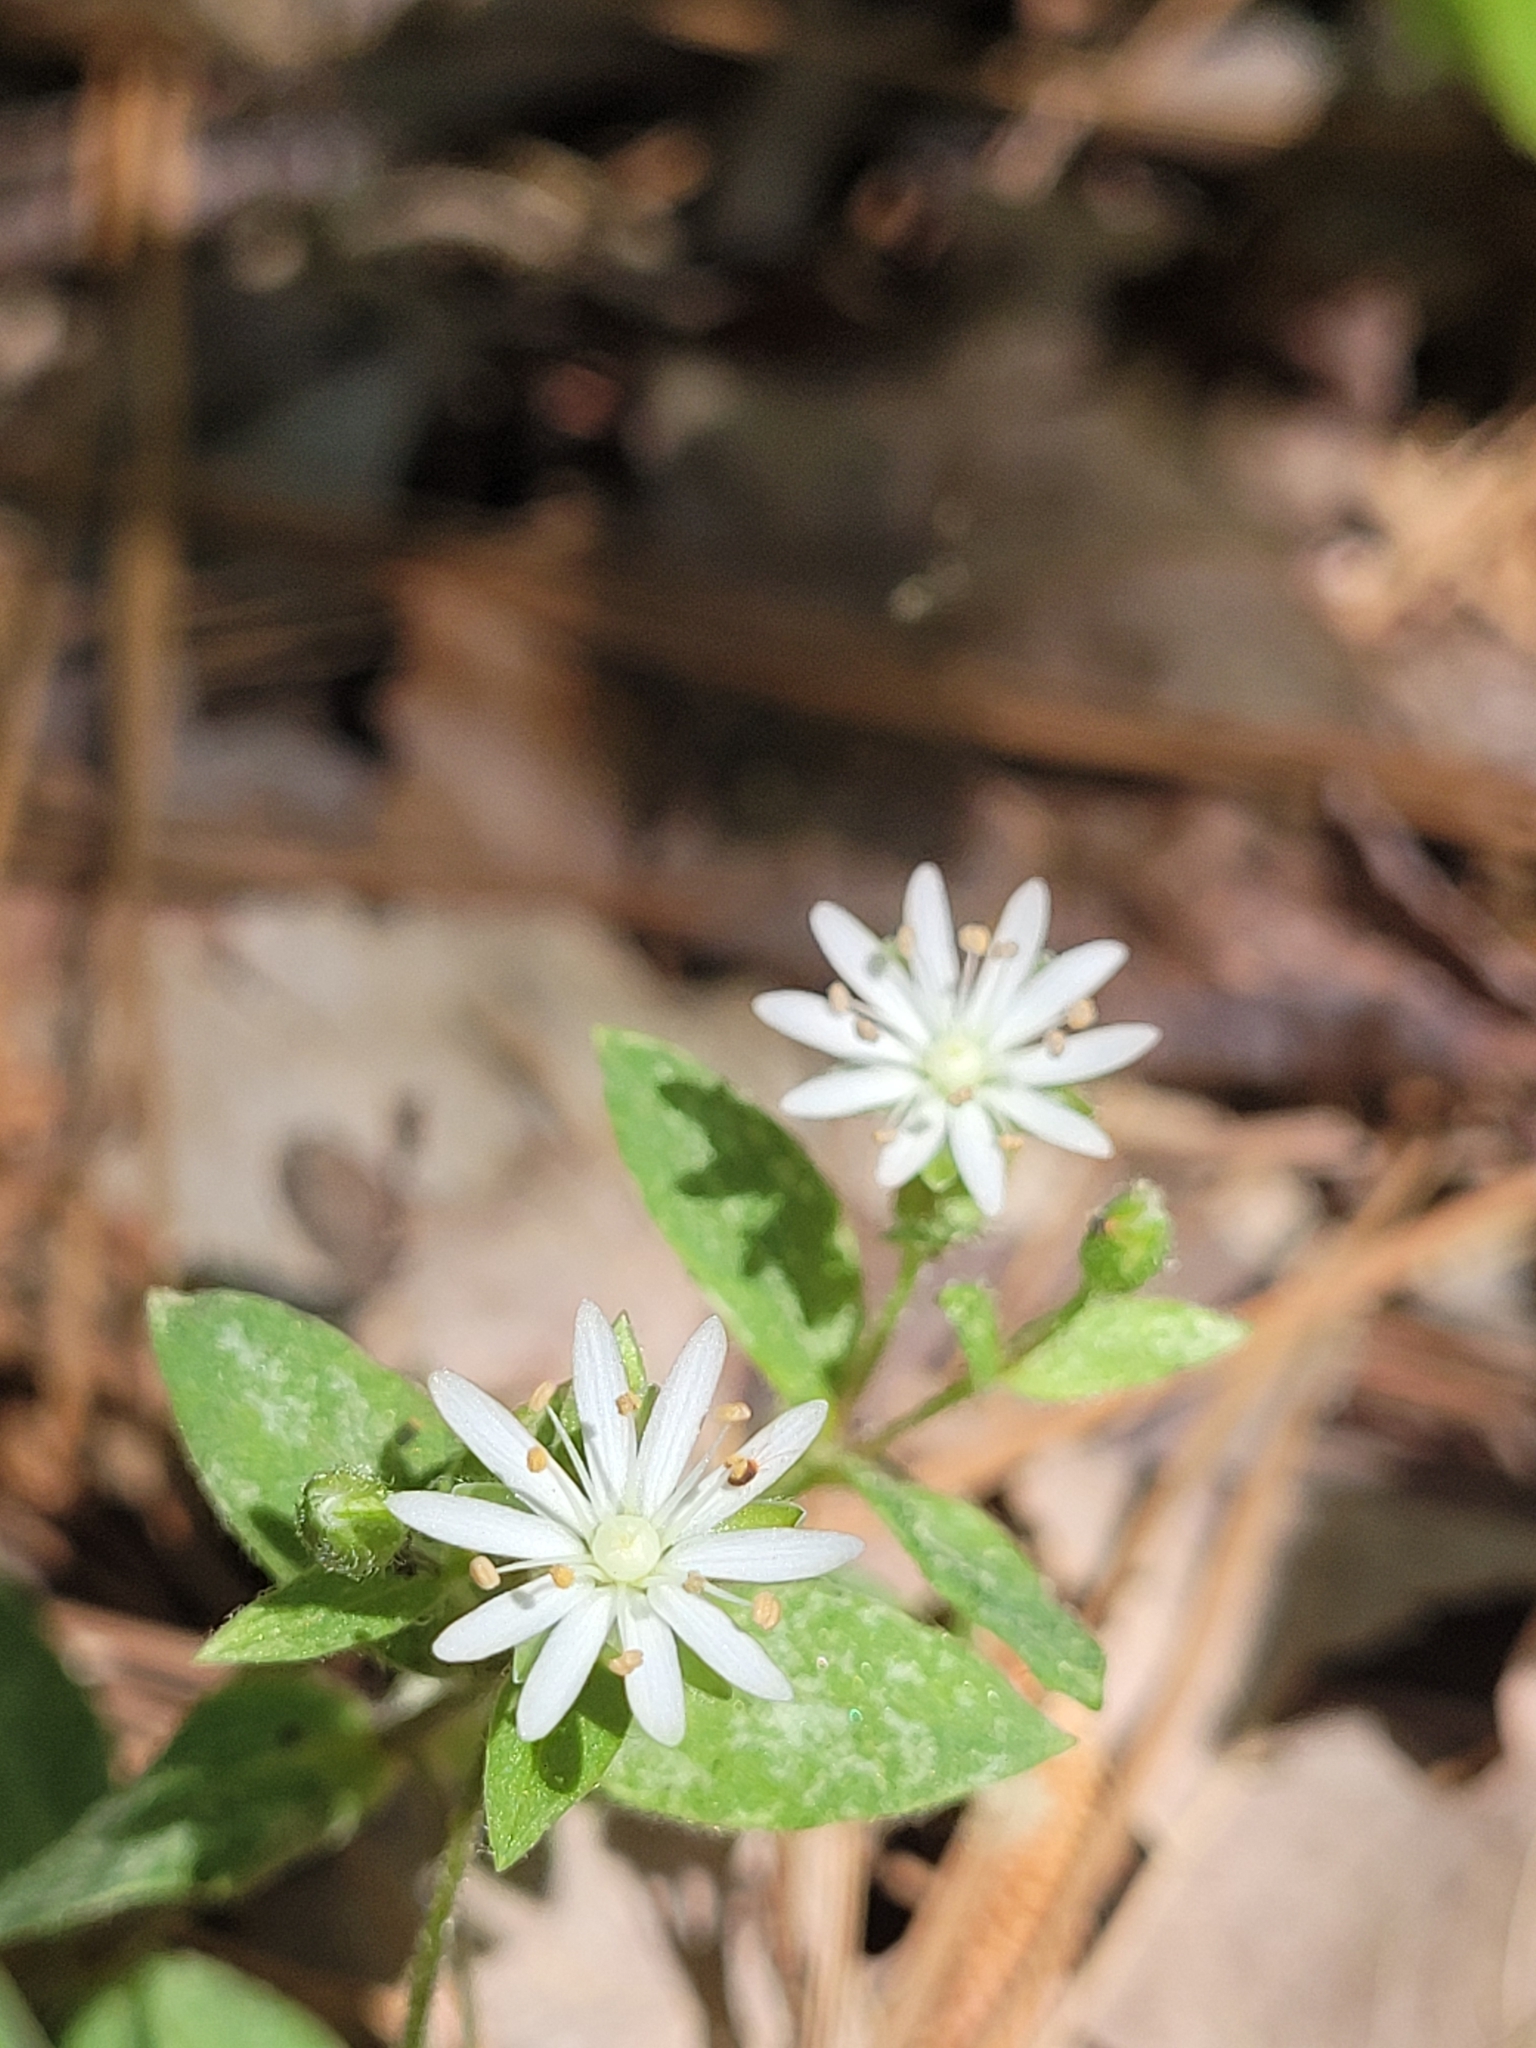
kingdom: Plantae
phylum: Tracheophyta
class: Magnoliopsida
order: Caryophyllales
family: Caryophyllaceae
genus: Stellaria
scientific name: Stellaria pubera
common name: Star chickweed
